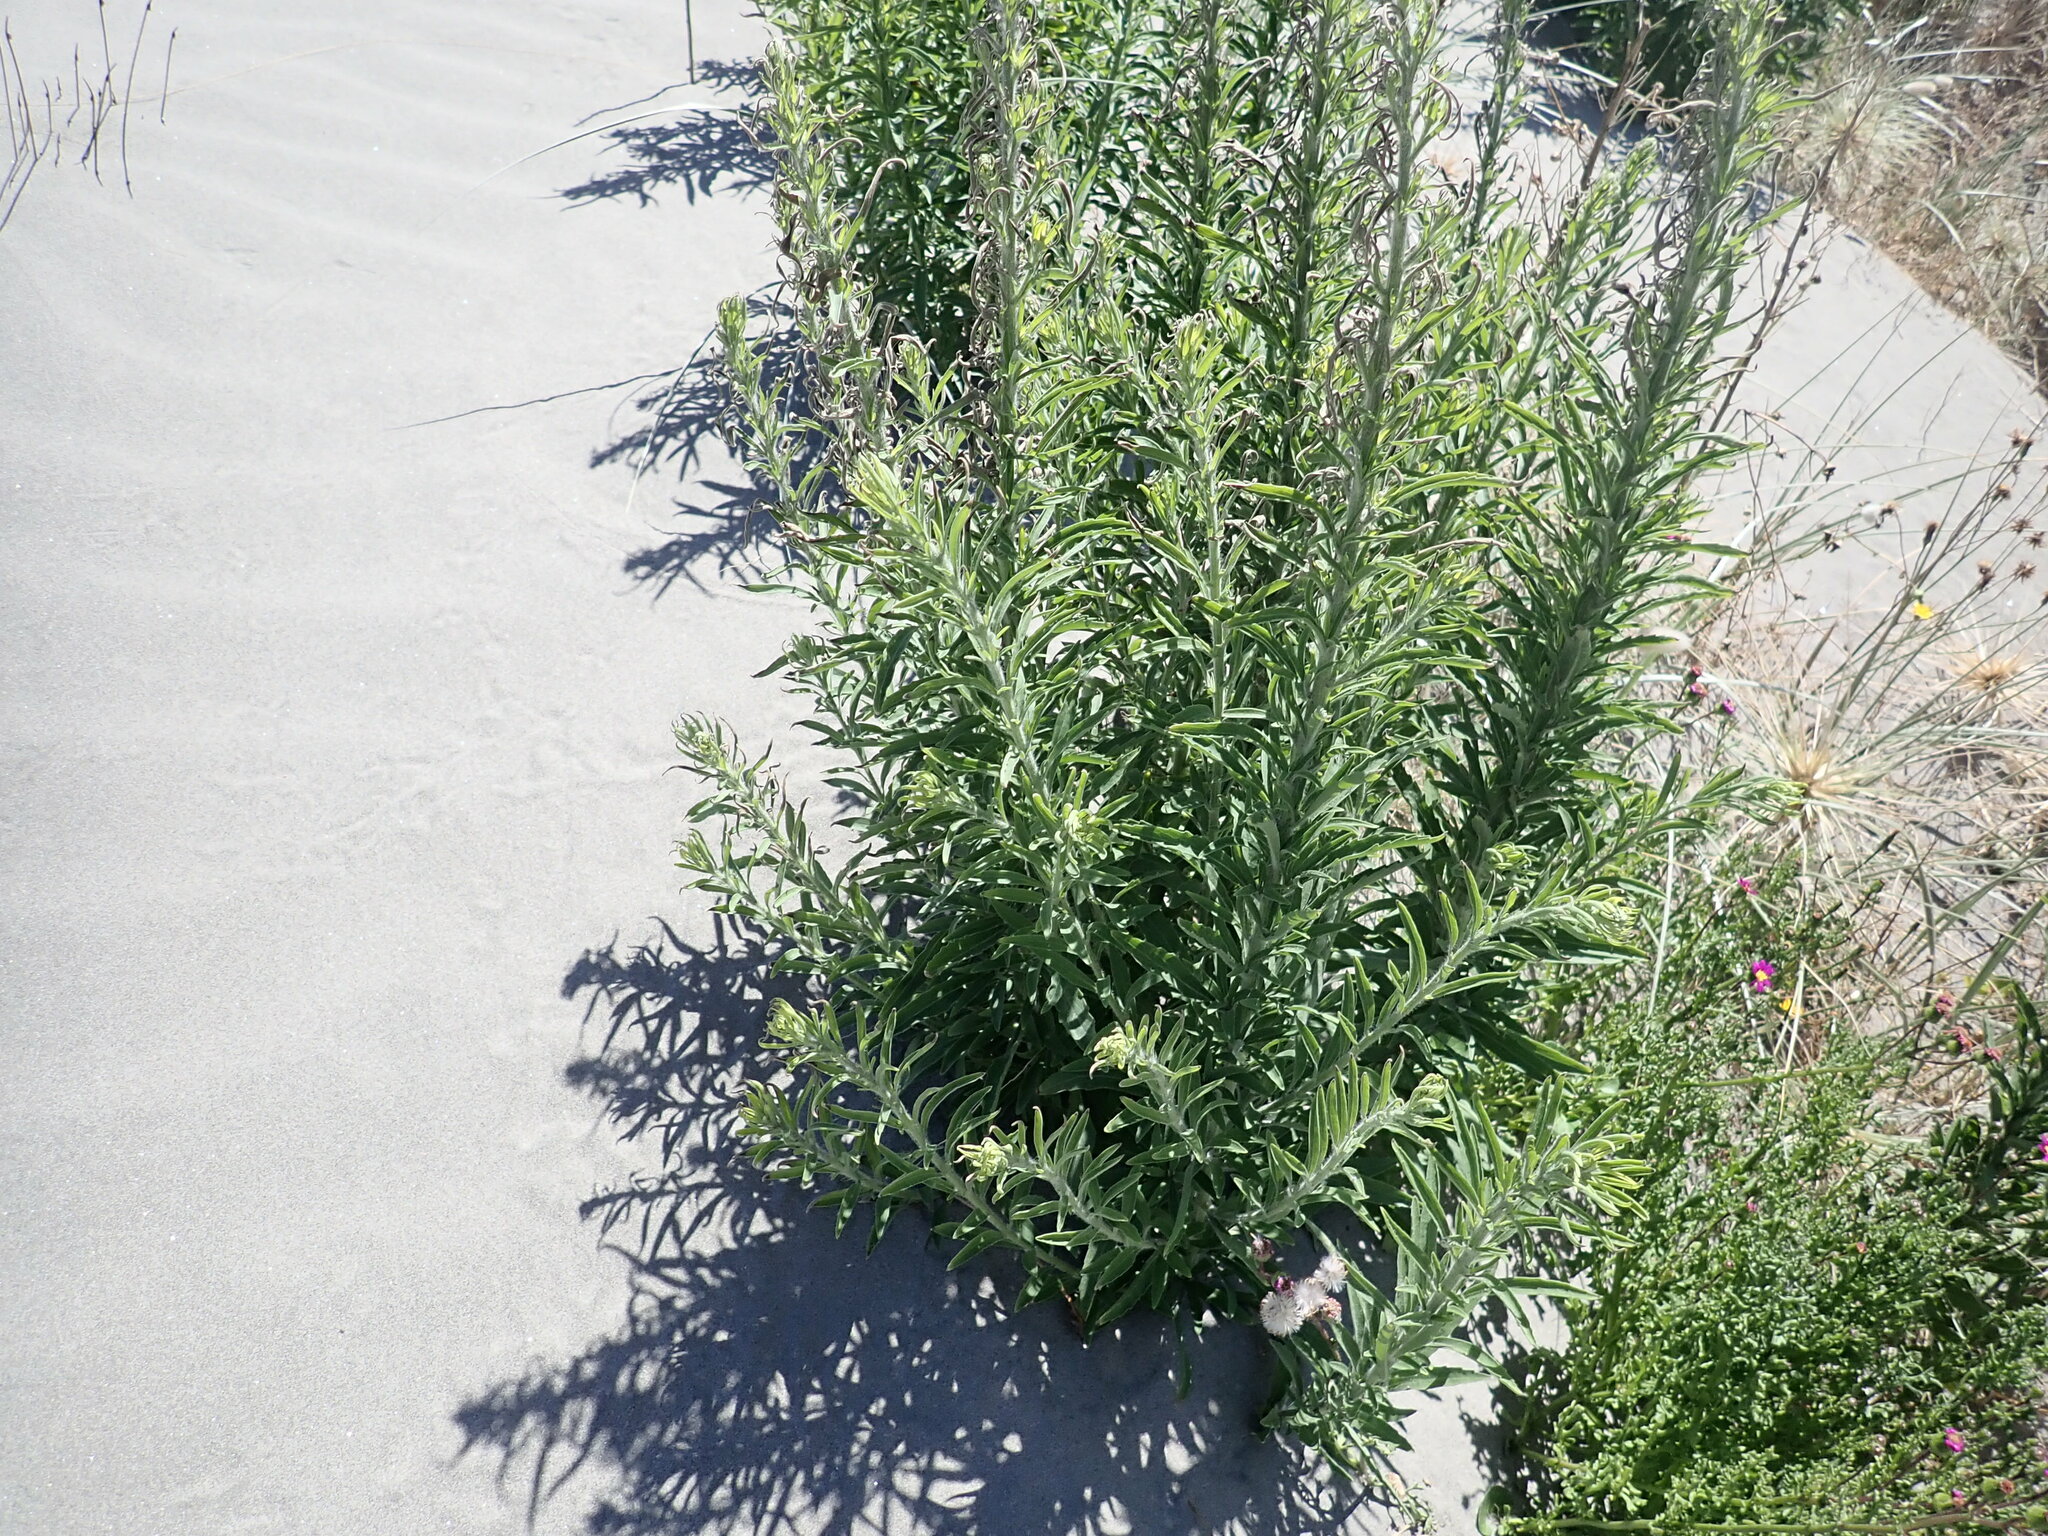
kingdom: Plantae
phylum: Tracheophyta
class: Magnoliopsida
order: Asterales
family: Asteraceae
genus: Erigeron
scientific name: Erigeron sumatrensis
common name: Daisy
